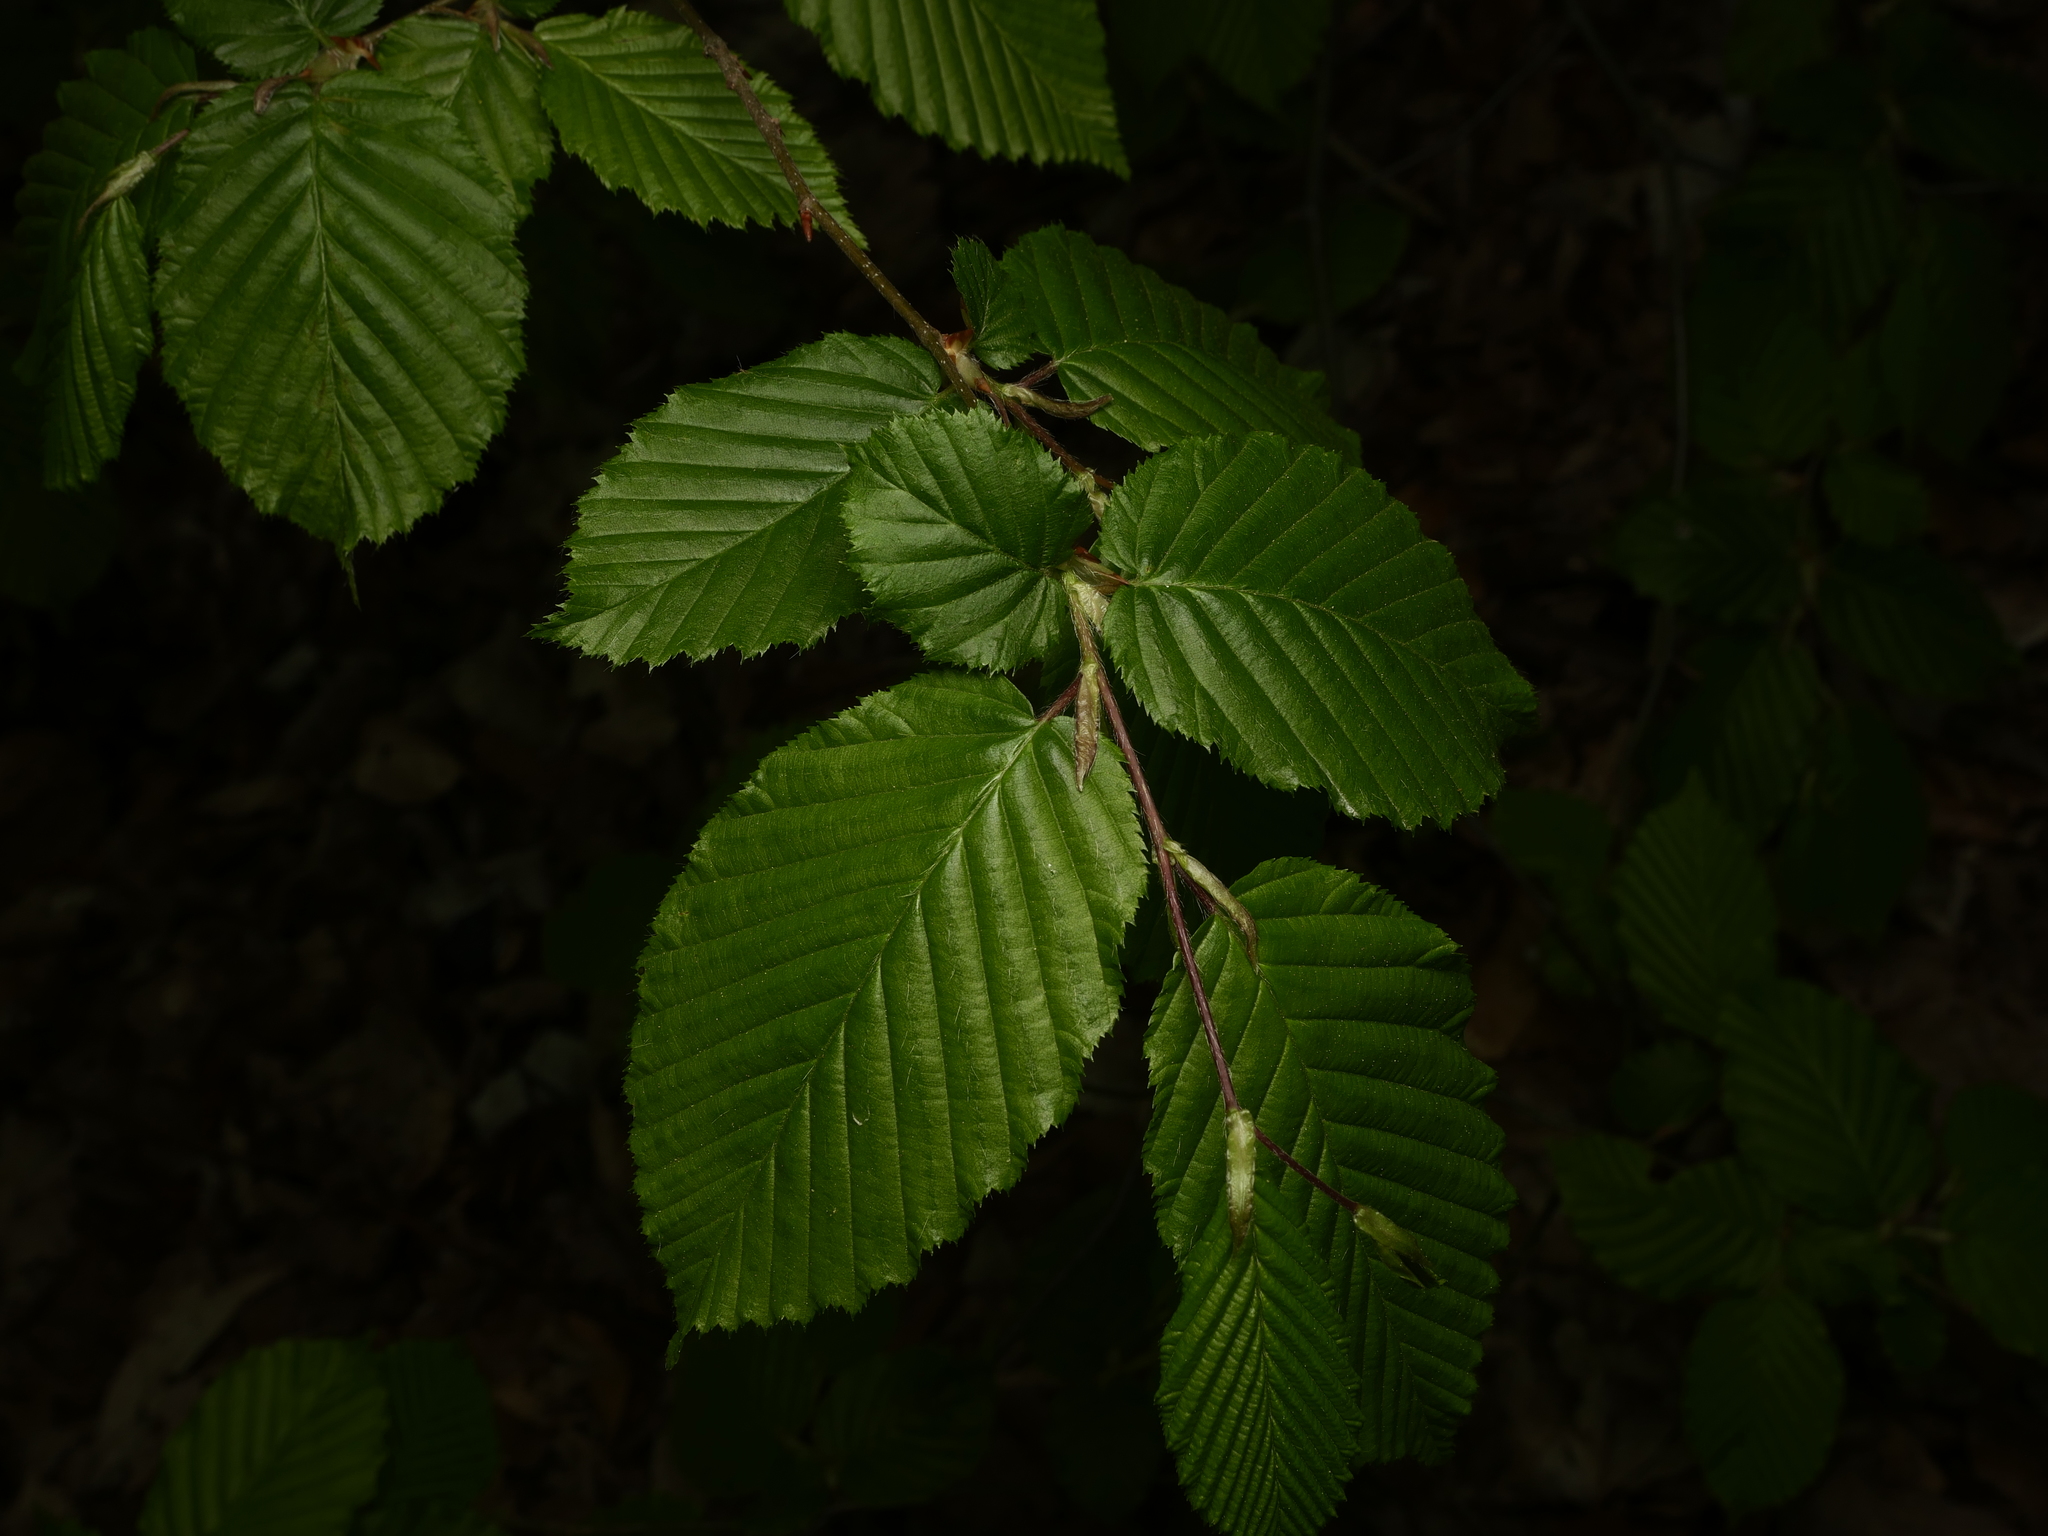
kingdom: Plantae
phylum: Tracheophyta
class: Magnoliopsida
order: Fagales
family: Betulaceae
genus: Carpinus
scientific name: Carpinus betulus
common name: Hornbeam
